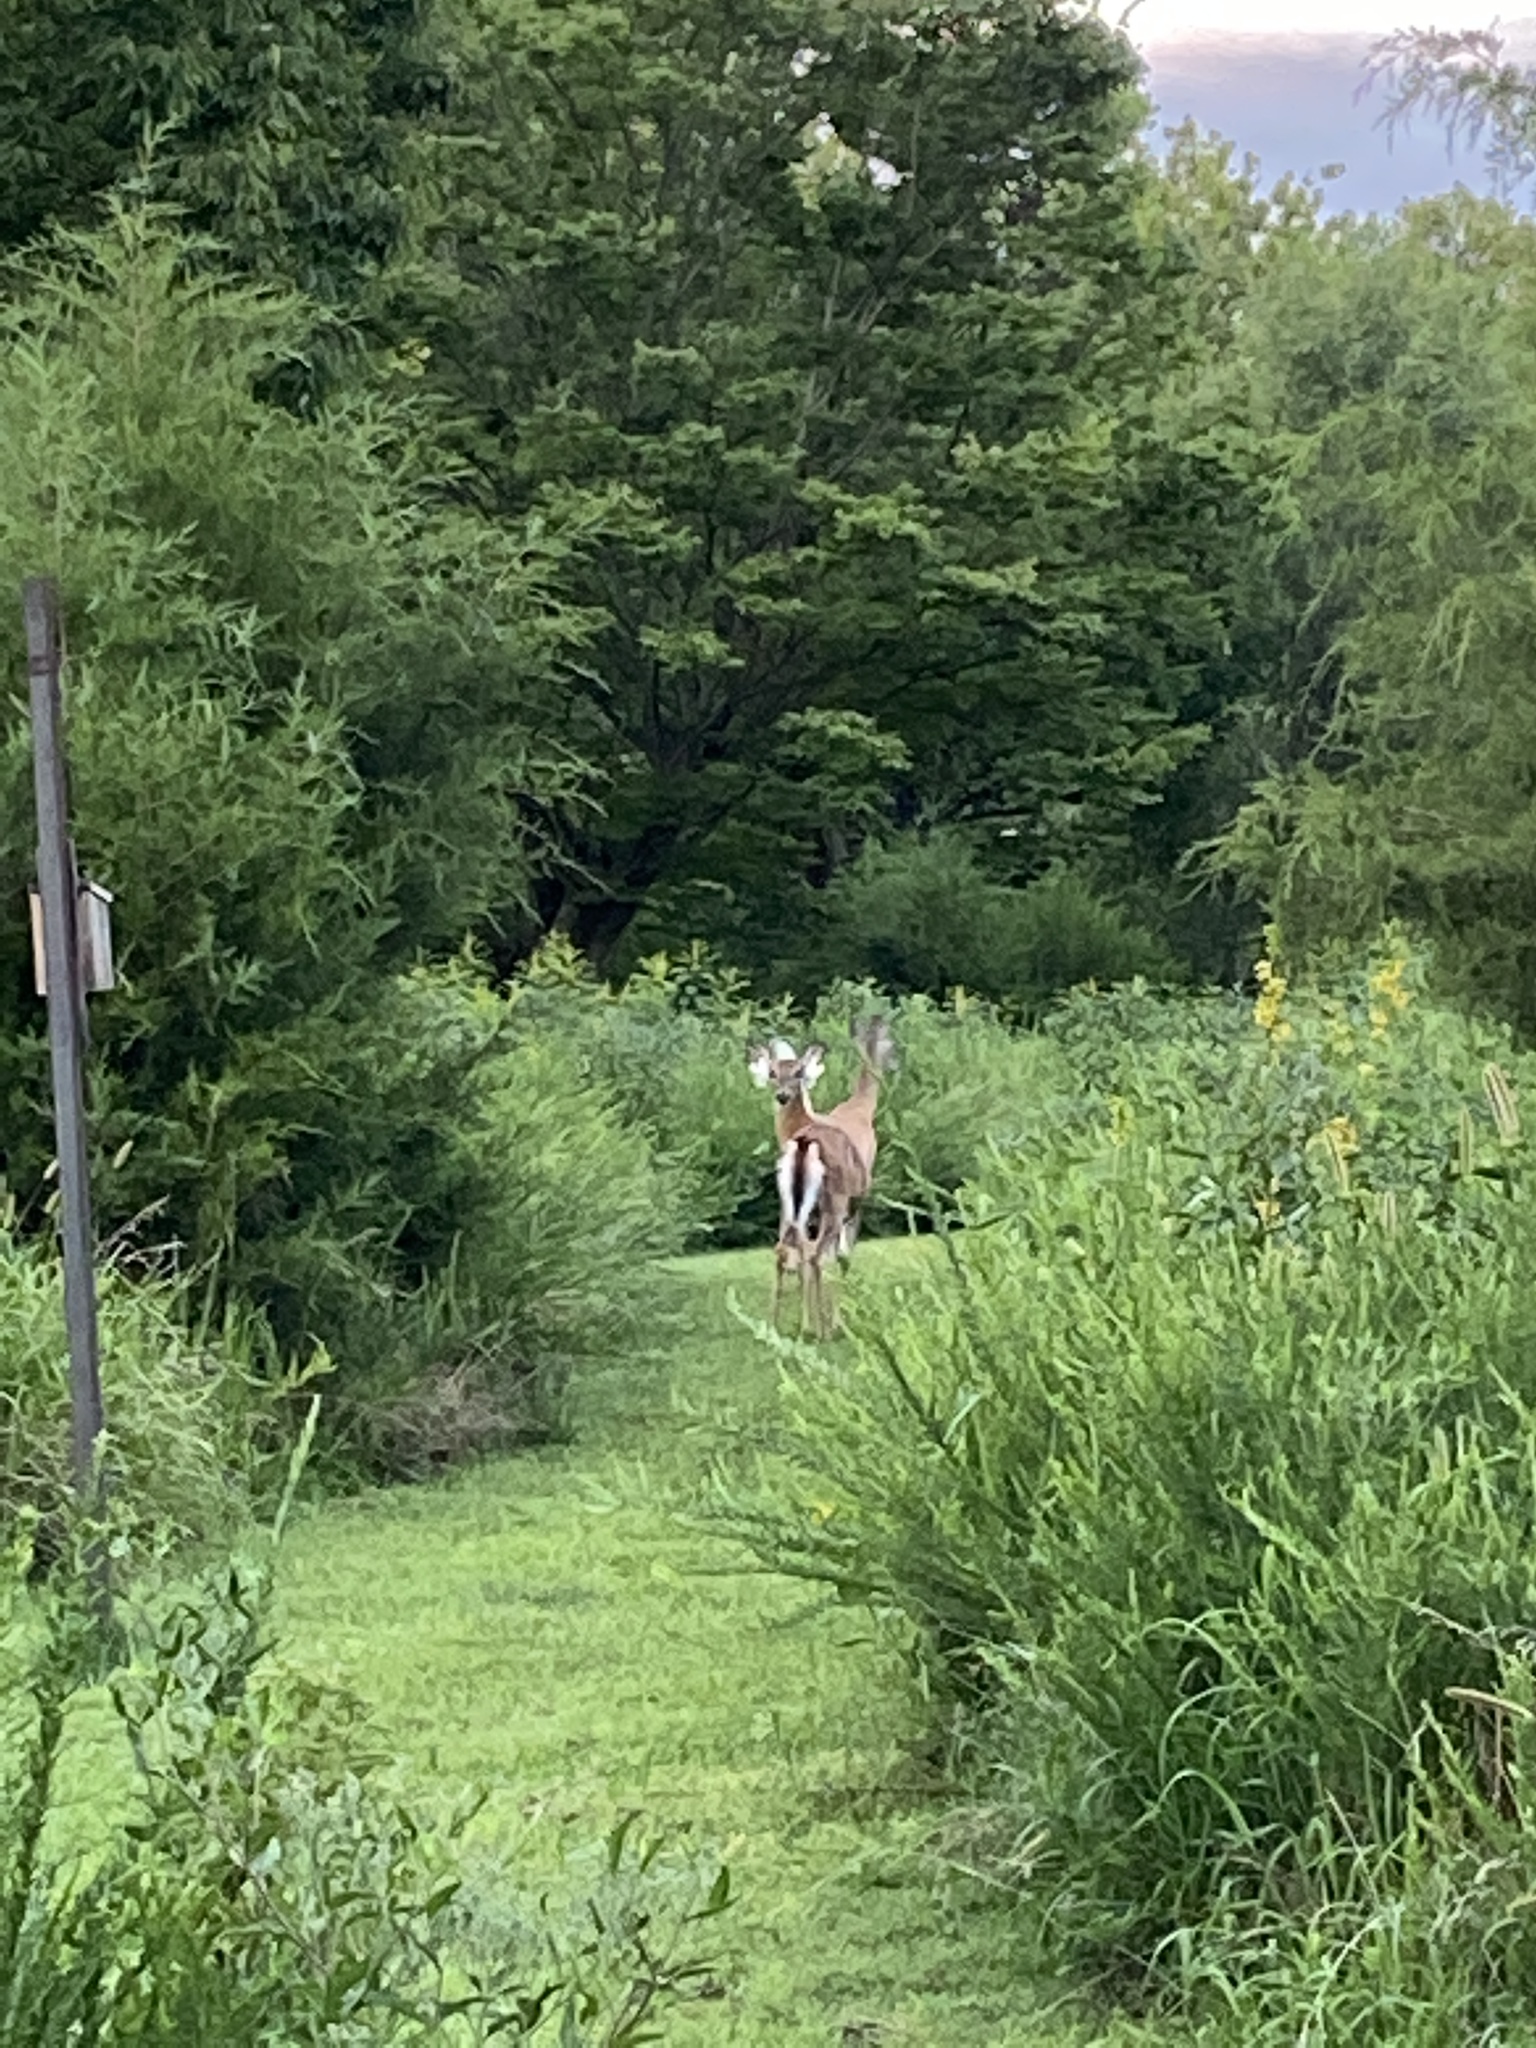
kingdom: Animalia
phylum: Chordata
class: Mammalia
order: Artiodactyla
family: Cervidae
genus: Odocoileus
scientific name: Odocoileus virginianus
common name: White-tailed deer
